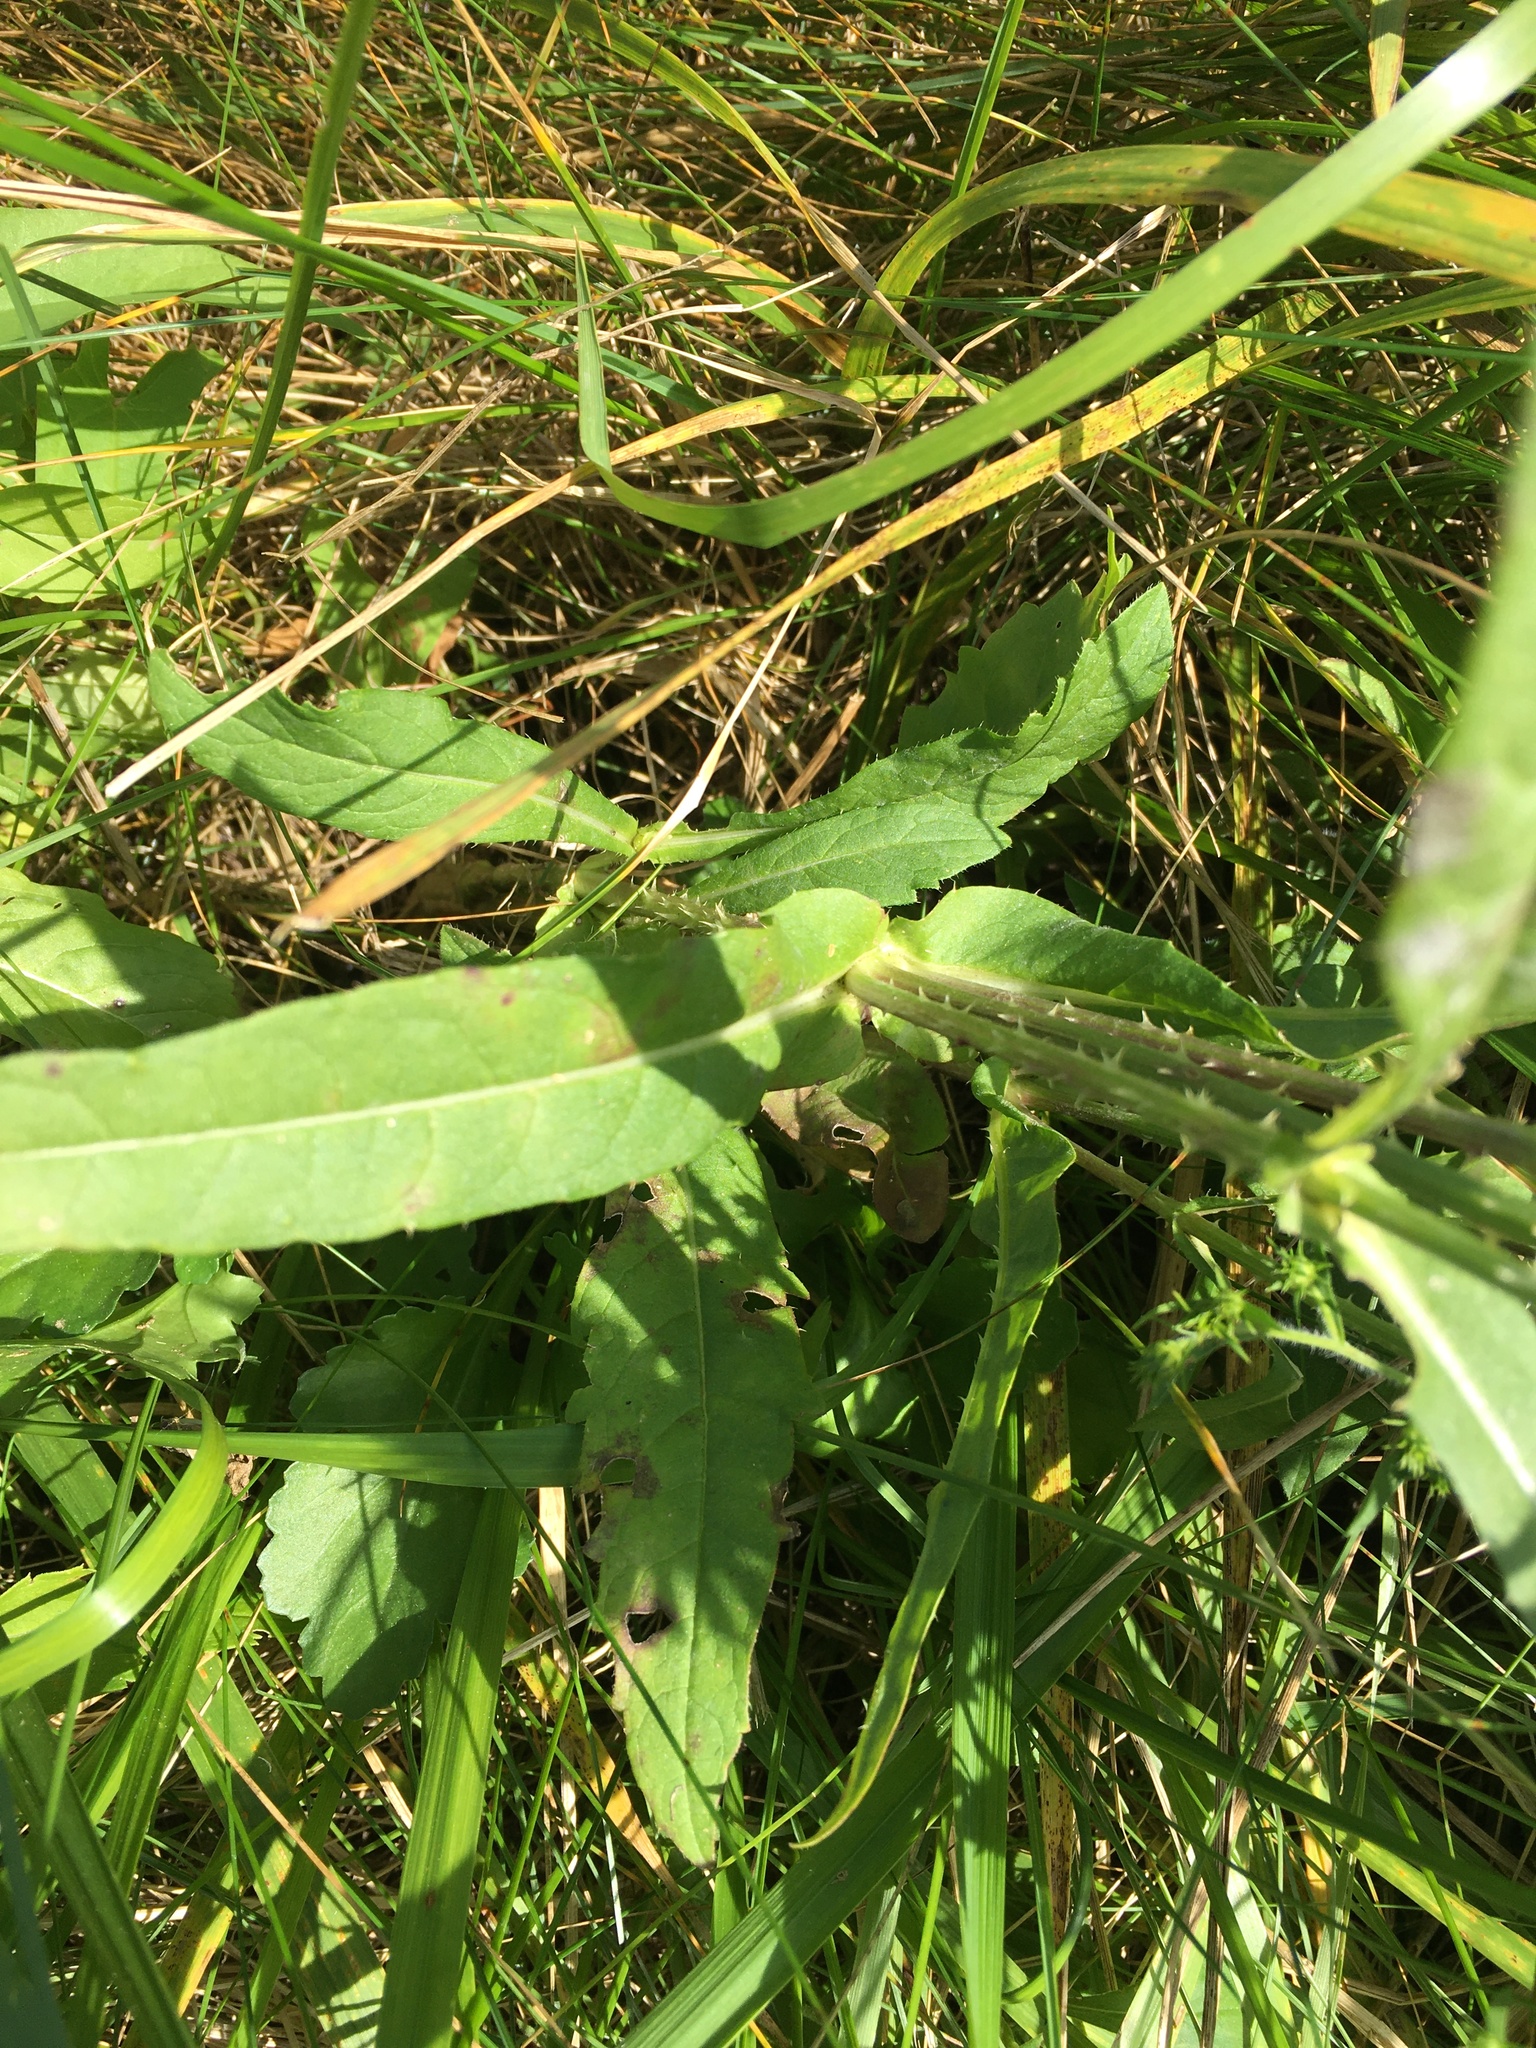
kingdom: Plantae
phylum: Tracheophyta
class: Magnoliopsida
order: Dipsacales
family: Caprifoliaceae
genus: Dipsacus
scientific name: Dipsacus fullonum
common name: Teasel
